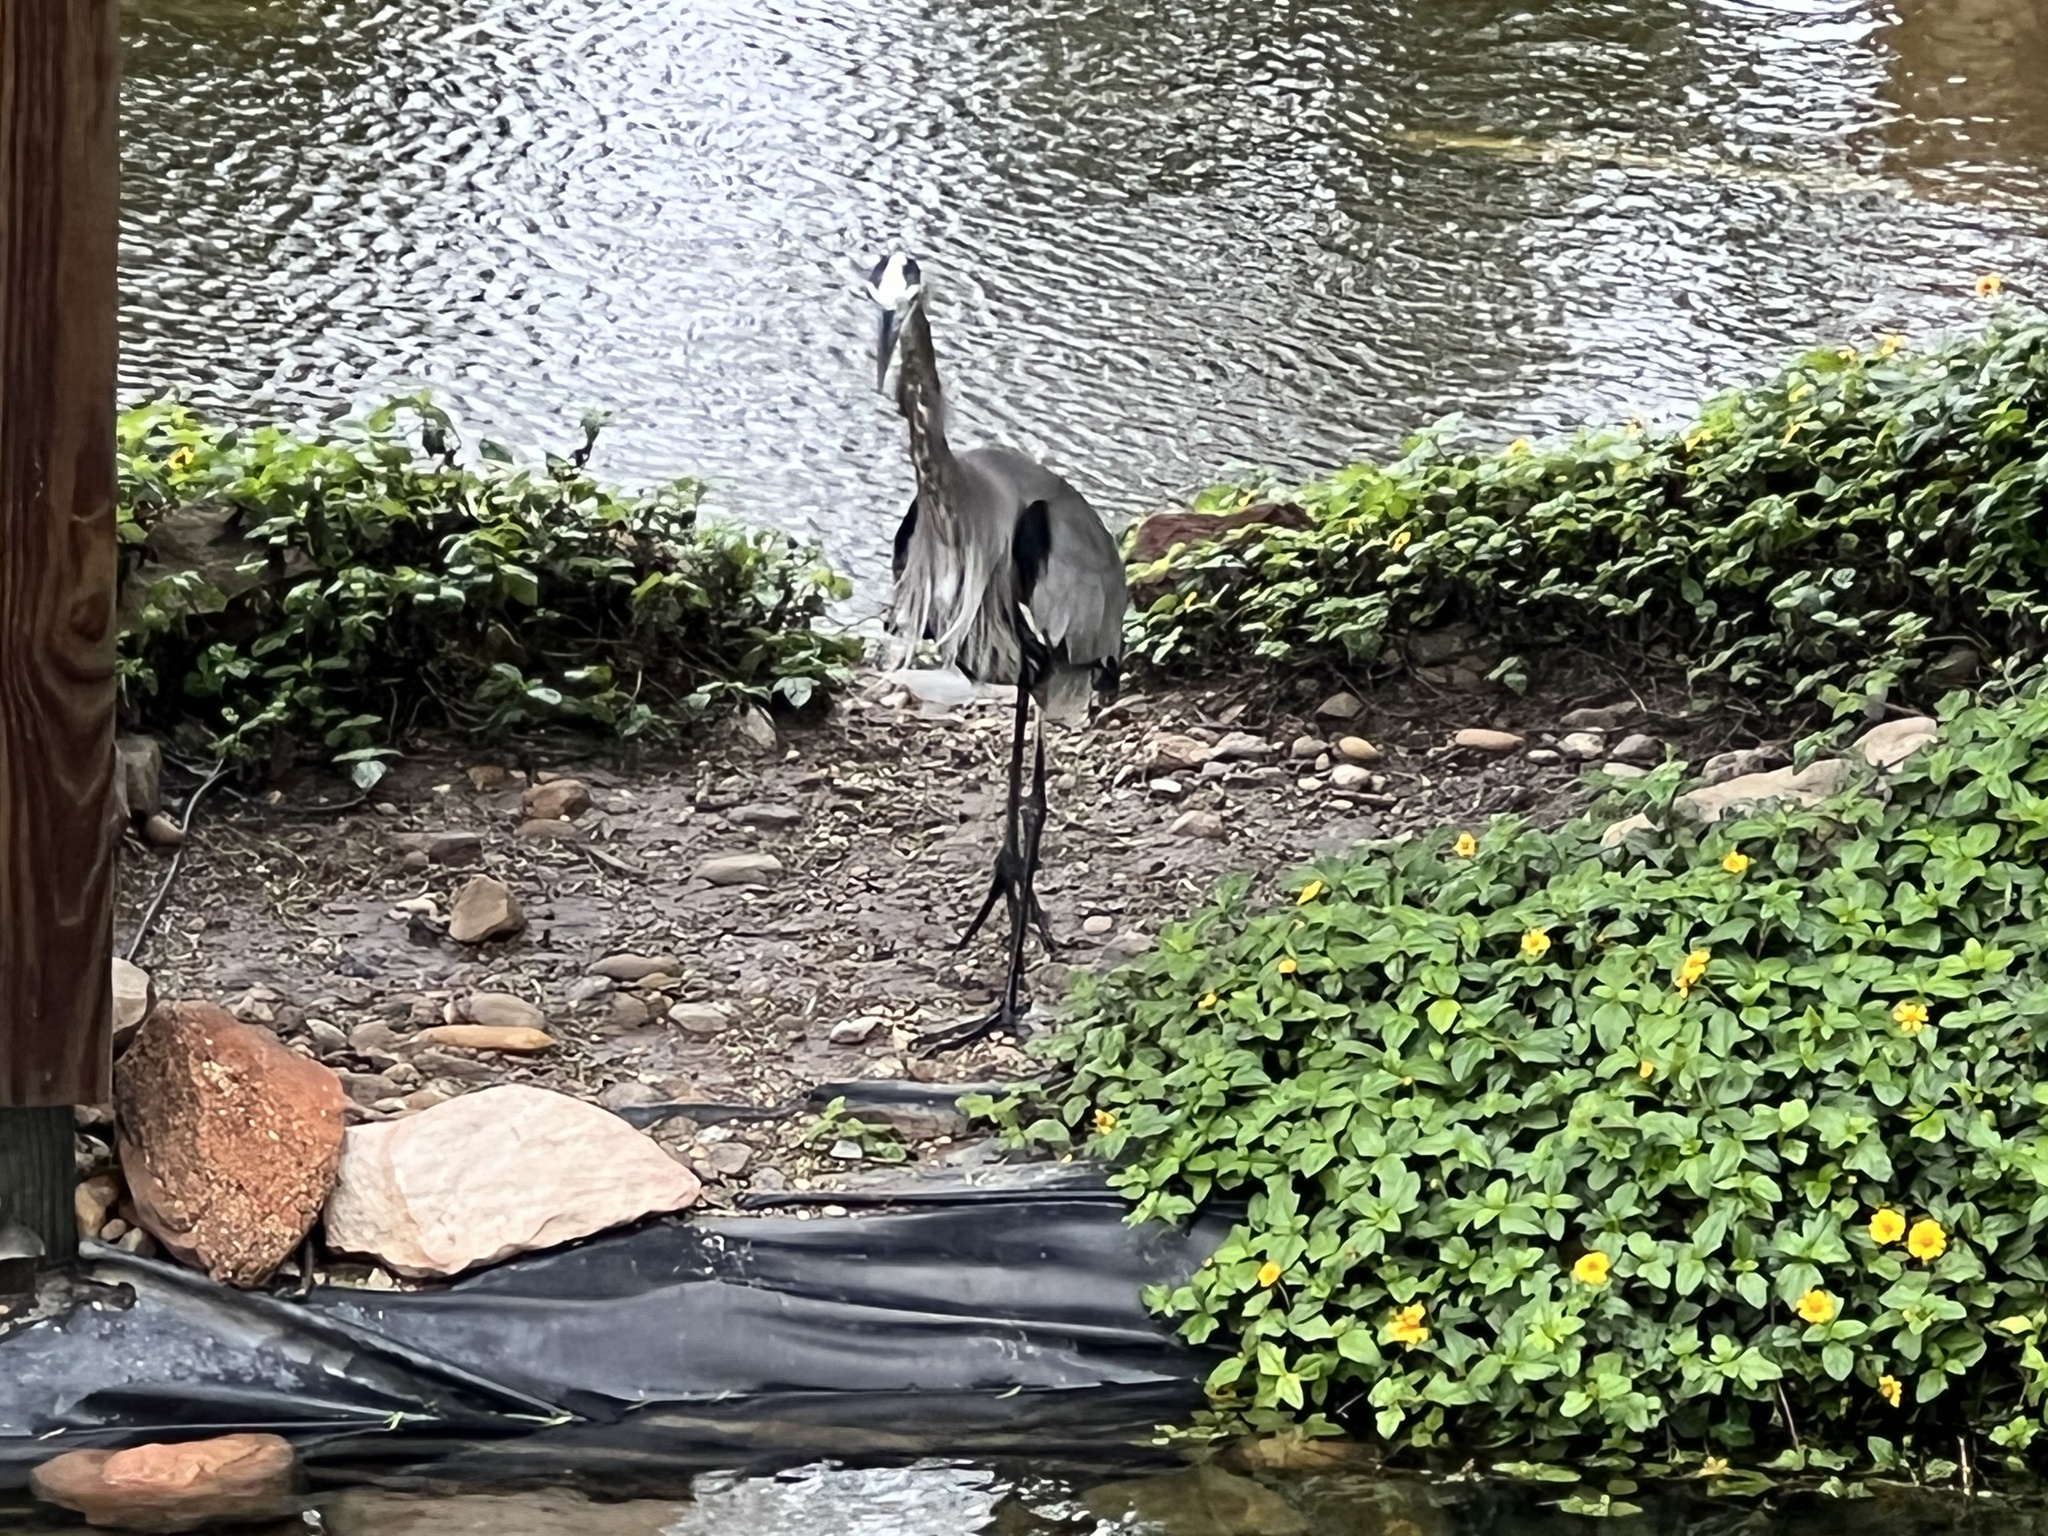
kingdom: Animalia
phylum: Chordata
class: Aves
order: Pelecaniformes
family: Ardeidae
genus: Ardea
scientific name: Ardea herodias
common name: Great blue heron
